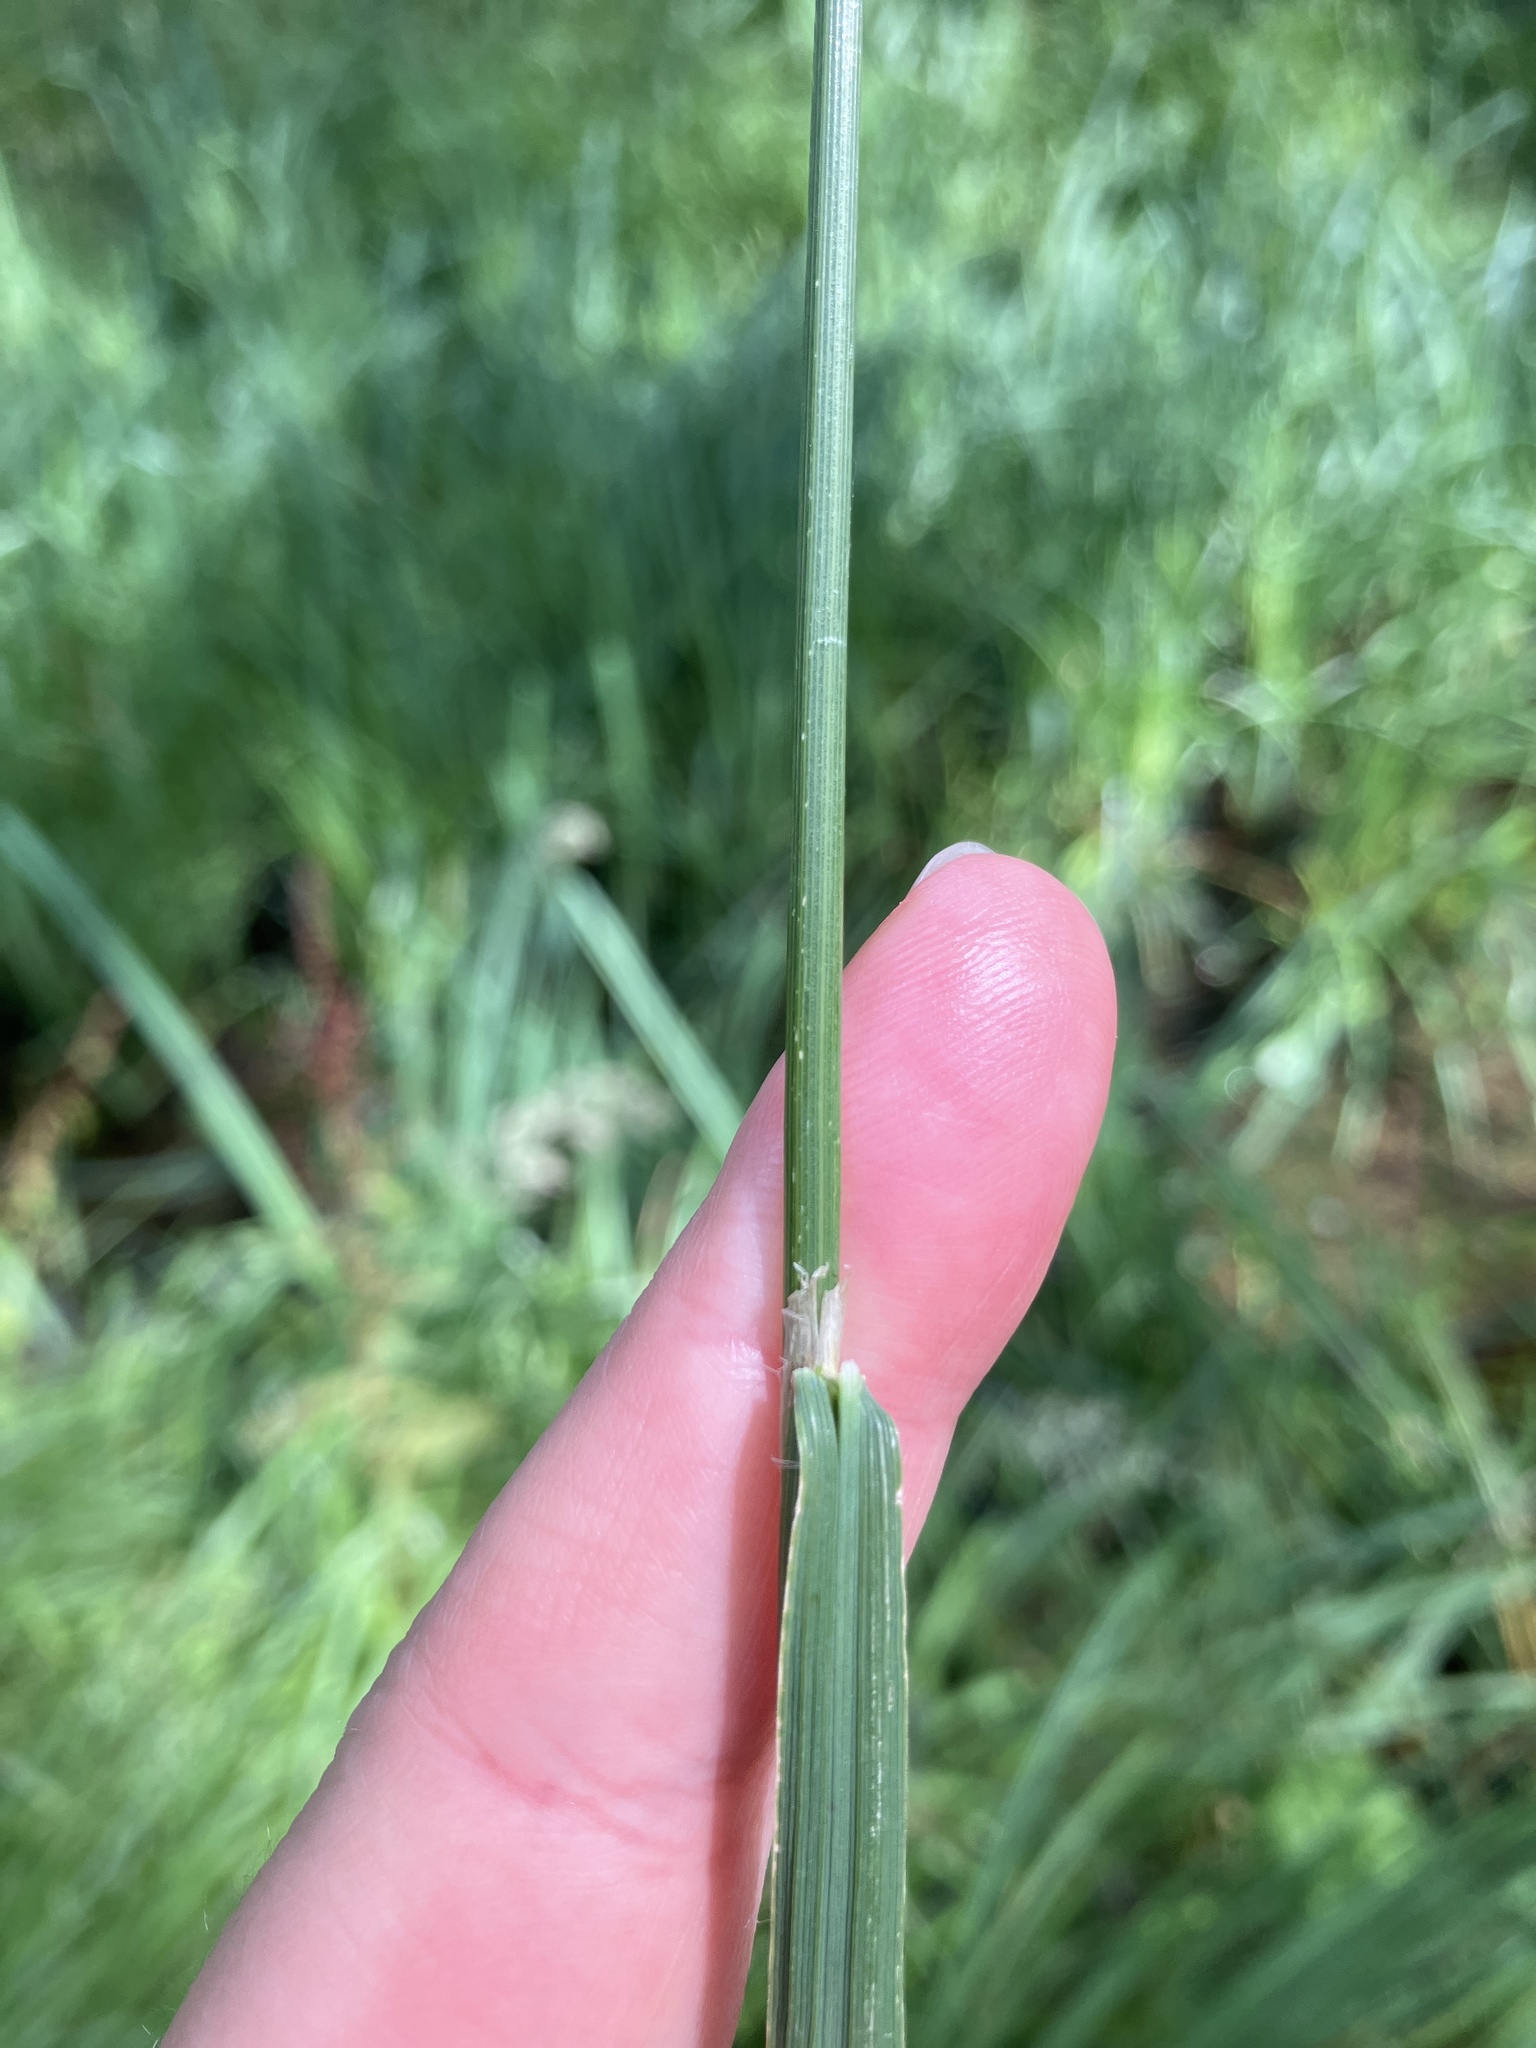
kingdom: Plantae
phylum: Tracheophyta
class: Liliopsida
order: Poales
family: Poaceae
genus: Calamagrostis
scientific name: Calamagrostis epigejos
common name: Wood small-reed
